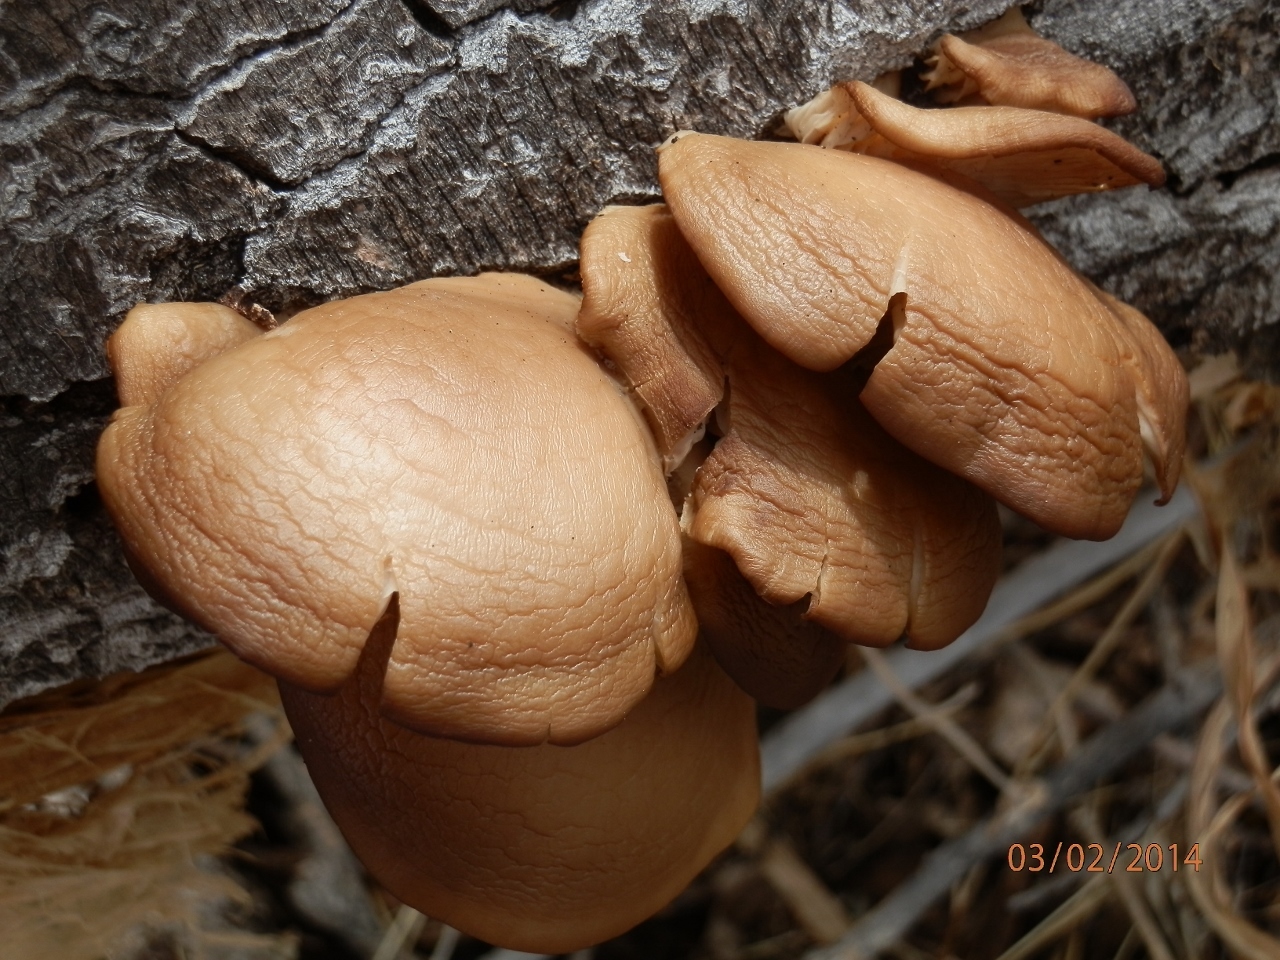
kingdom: Fungi
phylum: Basidiomycota
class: Agaricomycetes
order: Agaricales
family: Pleurotaceae
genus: Pleurotus
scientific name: Pleurotus ostreatus
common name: Oyster mushroom
